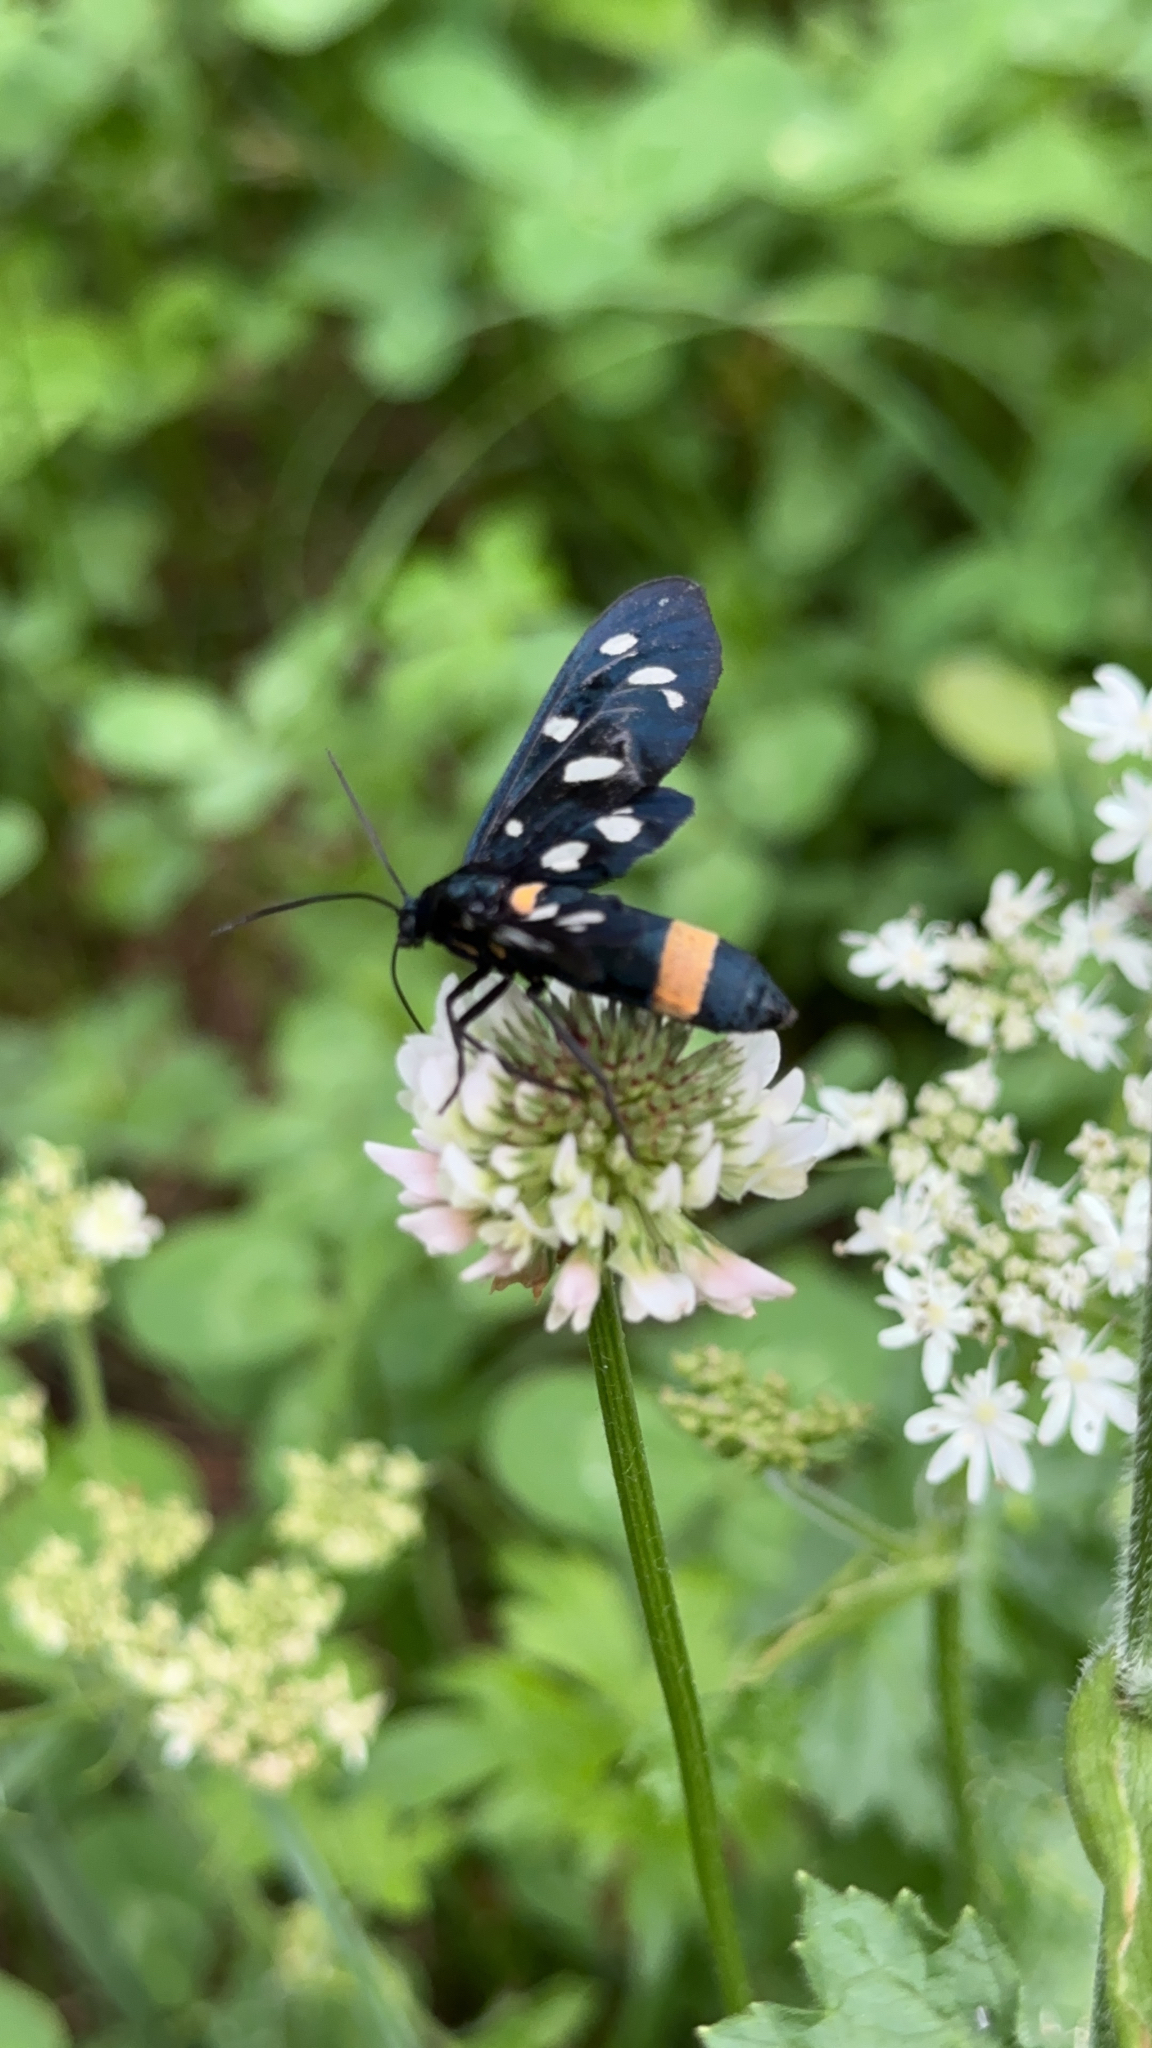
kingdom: Animalia
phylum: Arthropoda
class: Insecta
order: Lepidoptera
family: Erebidae
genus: Amata
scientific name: Amata phegea
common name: Nine-spotted
